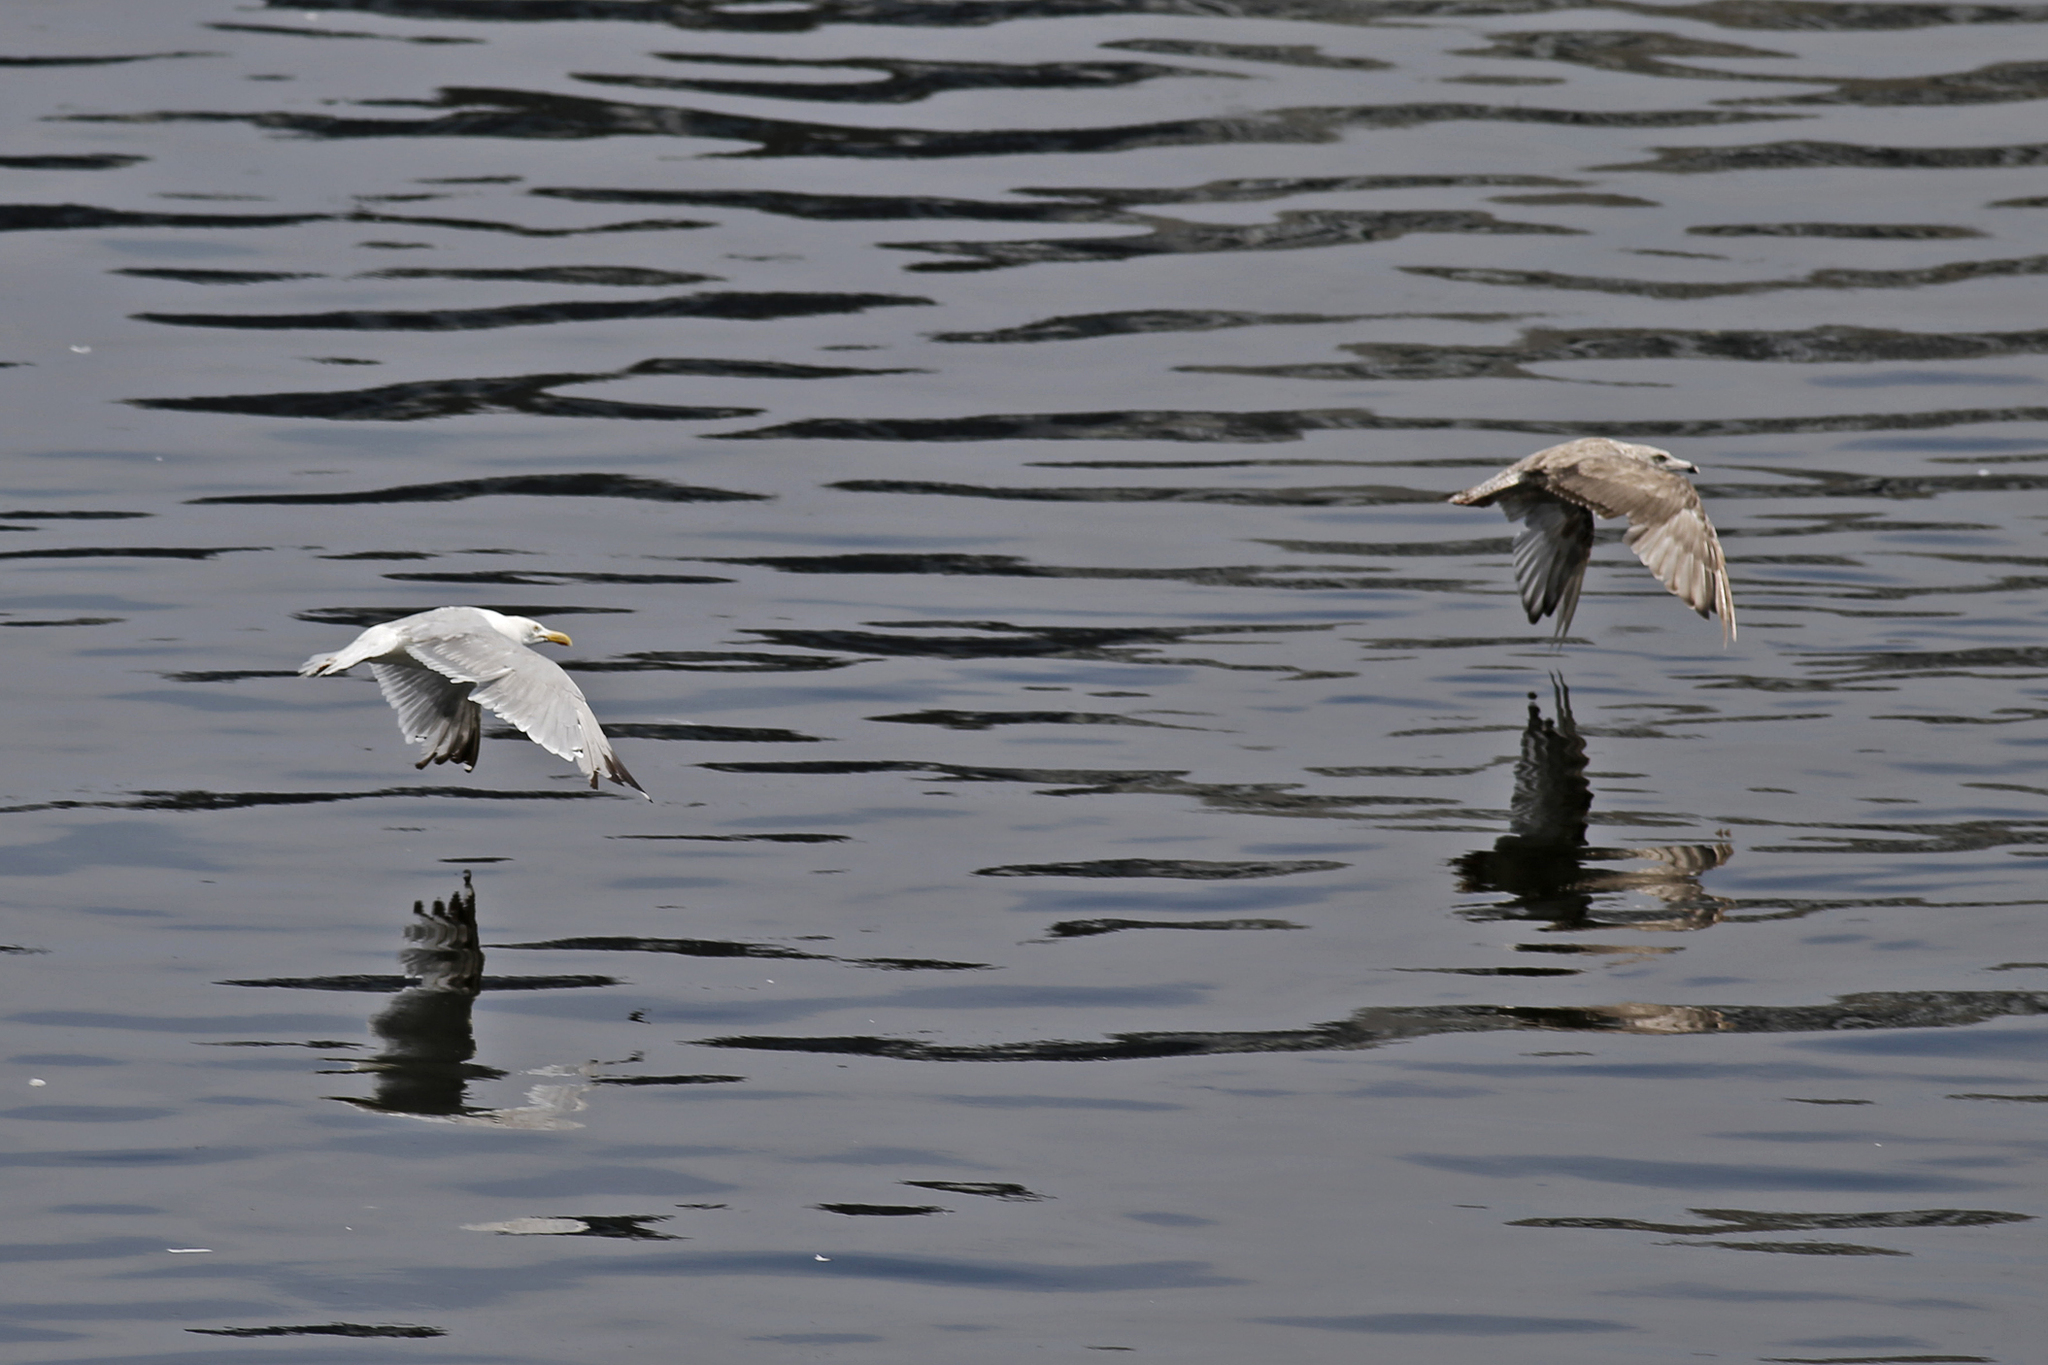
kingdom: Animalia
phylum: Chordata
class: Aves
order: Charadriiformes
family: Laridae
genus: Larus
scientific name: Larus argentatus
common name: Herring gull
